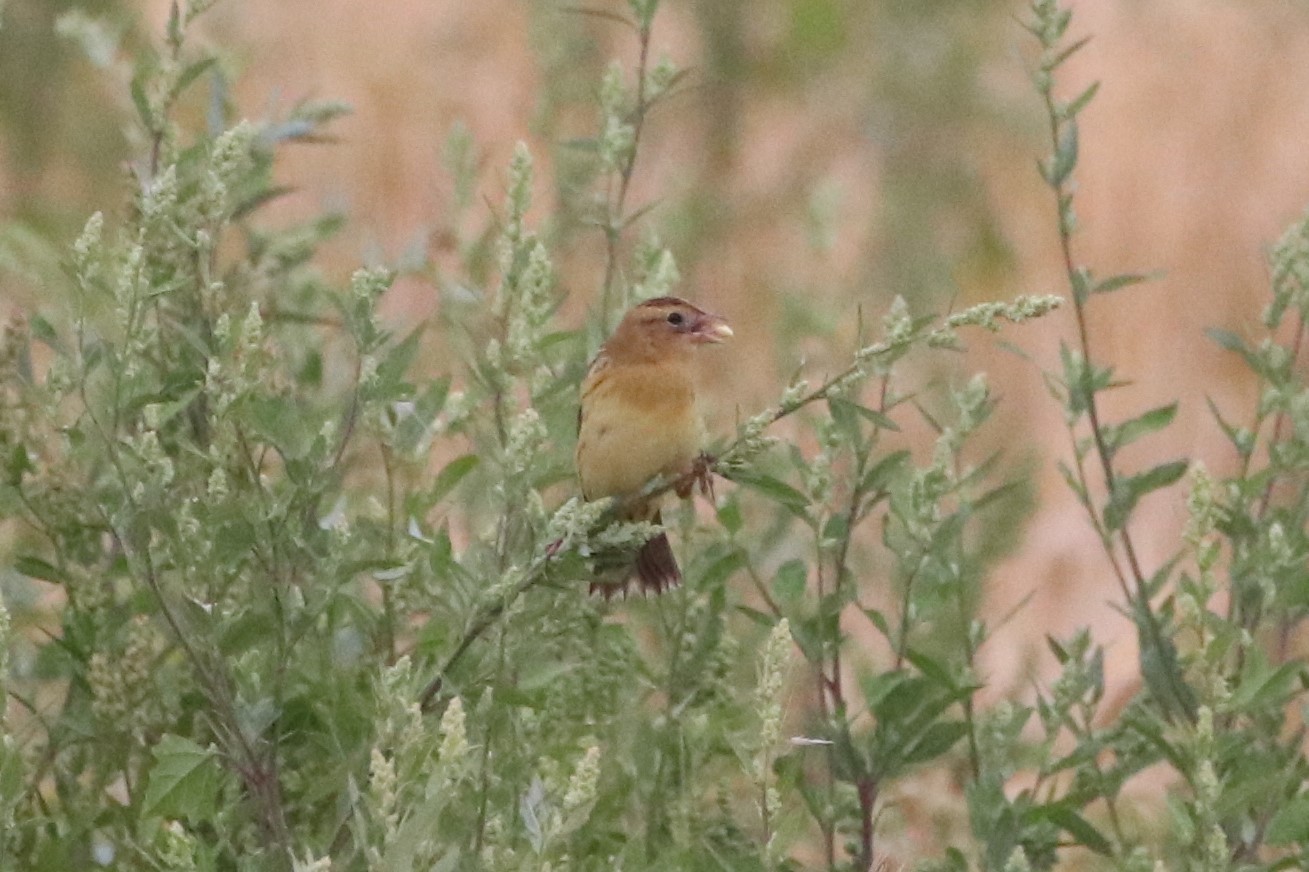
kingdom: Animalia
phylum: Chordata
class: Aves
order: Passeriformes
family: Icteridae
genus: Dolichonyx
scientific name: Dolichonyx oryzivorus
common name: Bobolink
